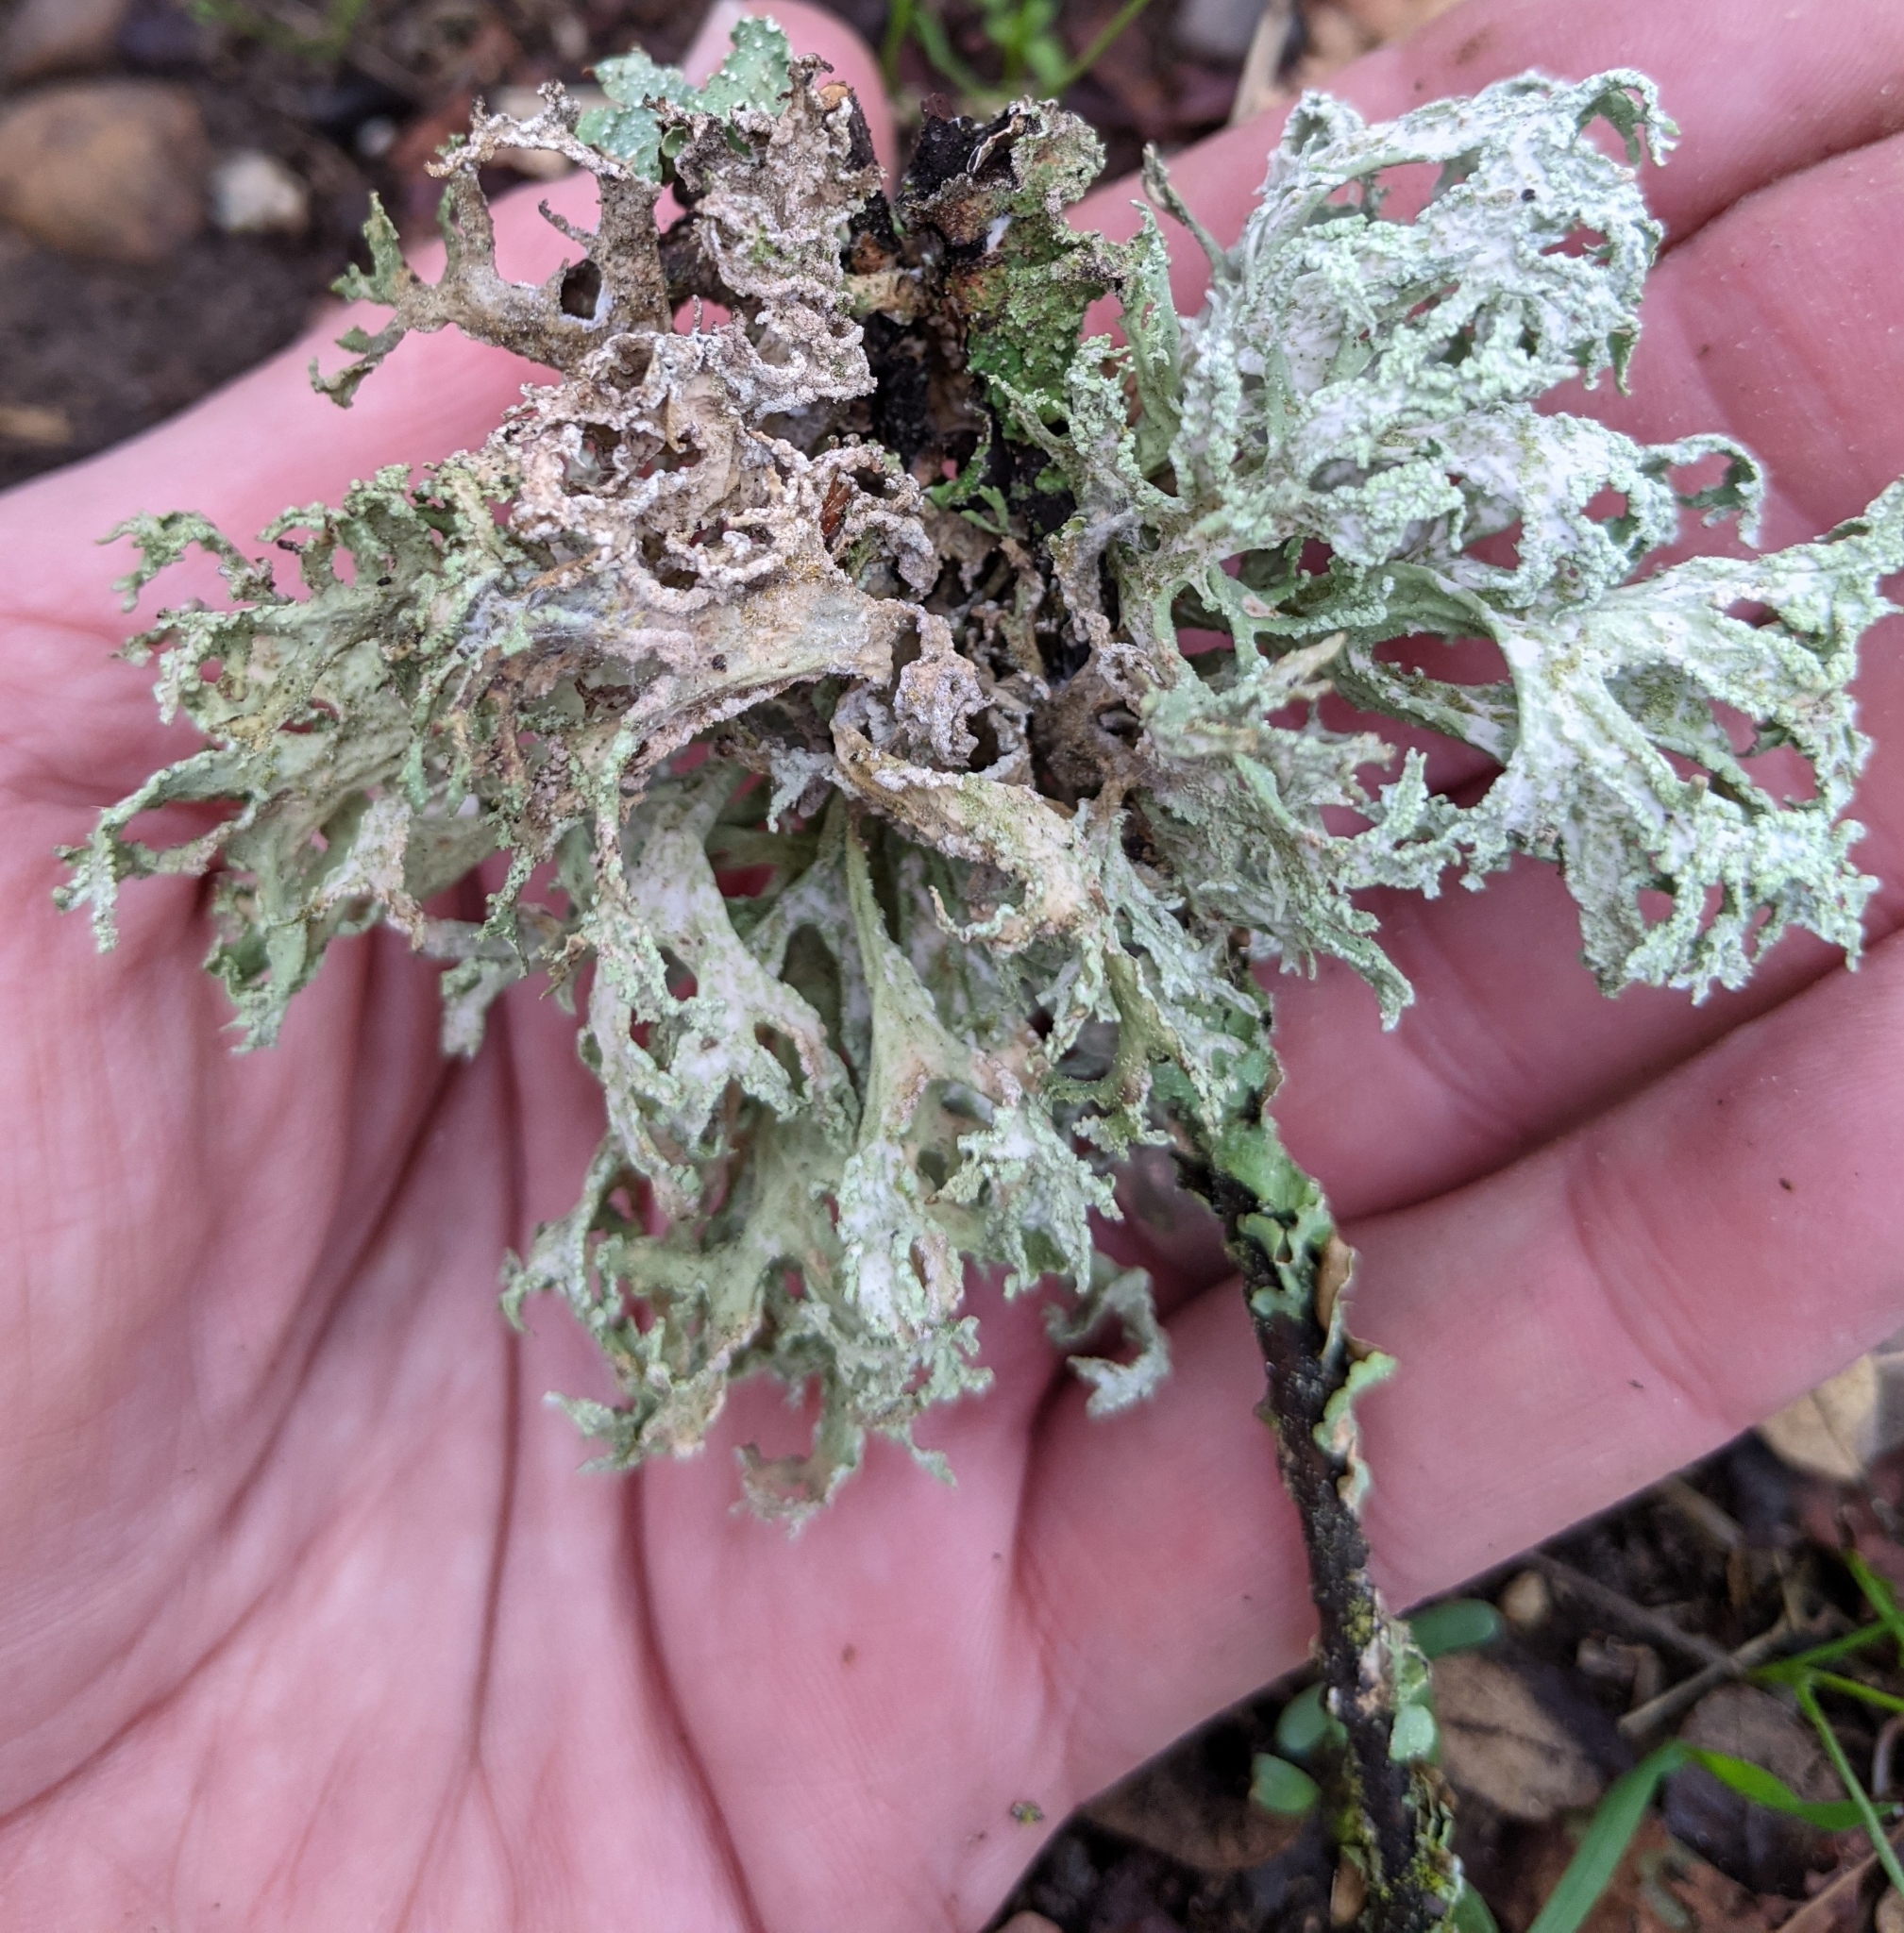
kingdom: Fungi
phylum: Ascomycota
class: Lecanoromycetes
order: Lecanorales
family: Parmeliaceae
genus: Evernia
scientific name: Evernia prunastri
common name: Oak moss
